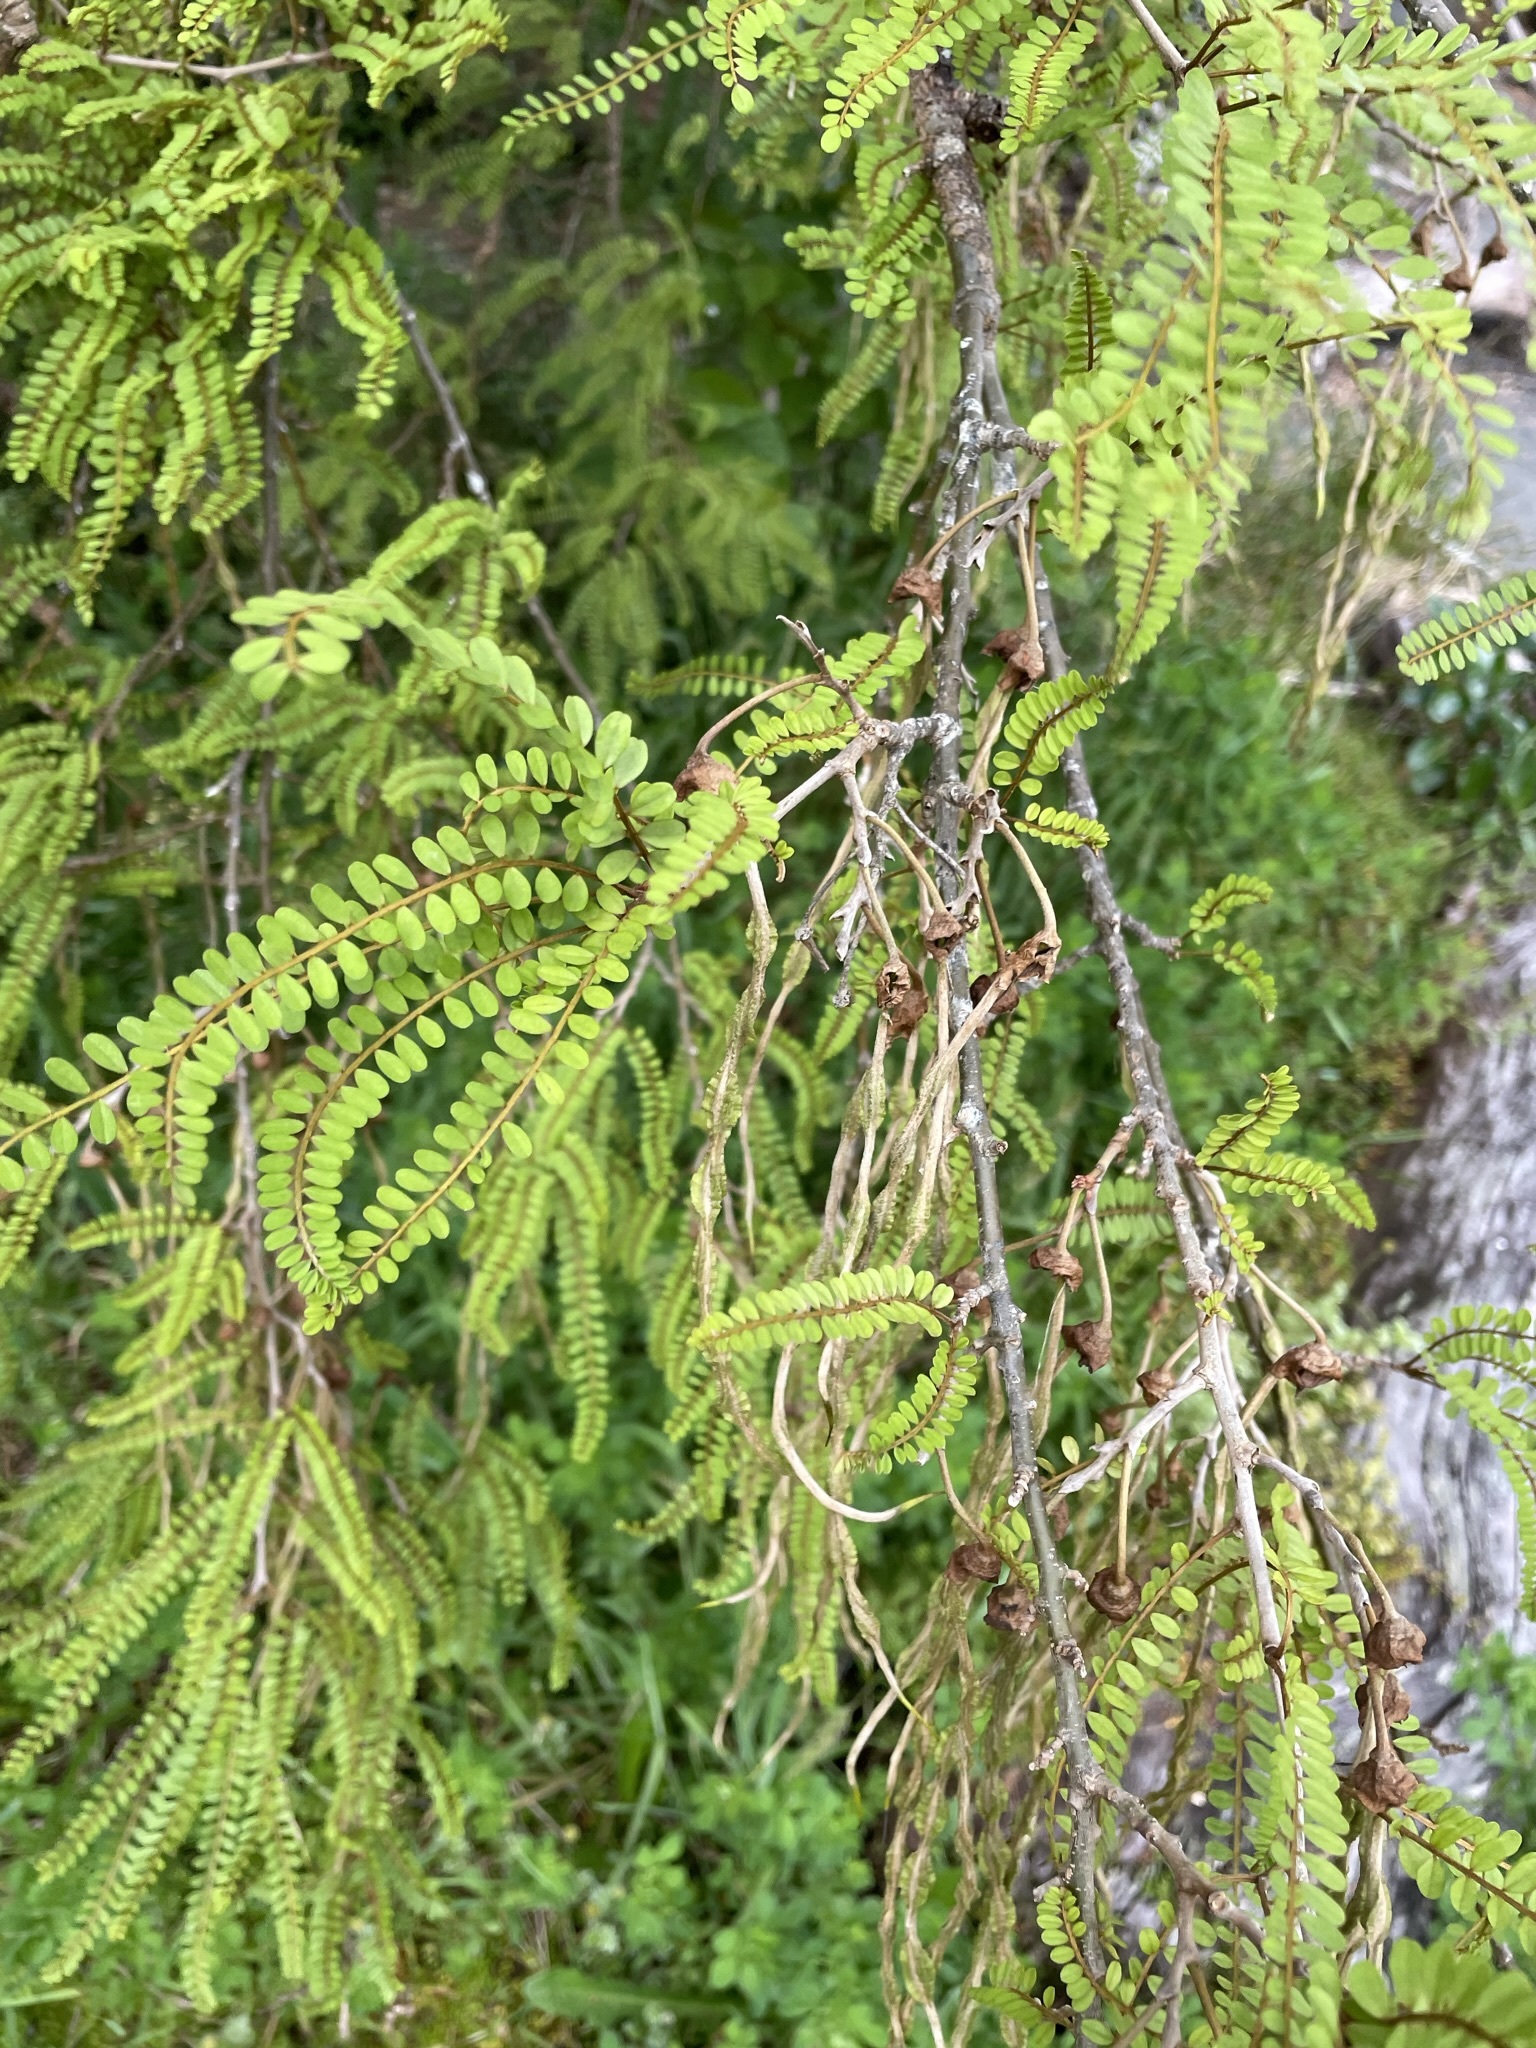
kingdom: Plantae
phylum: Tracheophyta
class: Magnoliopsida
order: Fabales
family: Fabaceae
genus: Sophora
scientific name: Sophora microphylla
